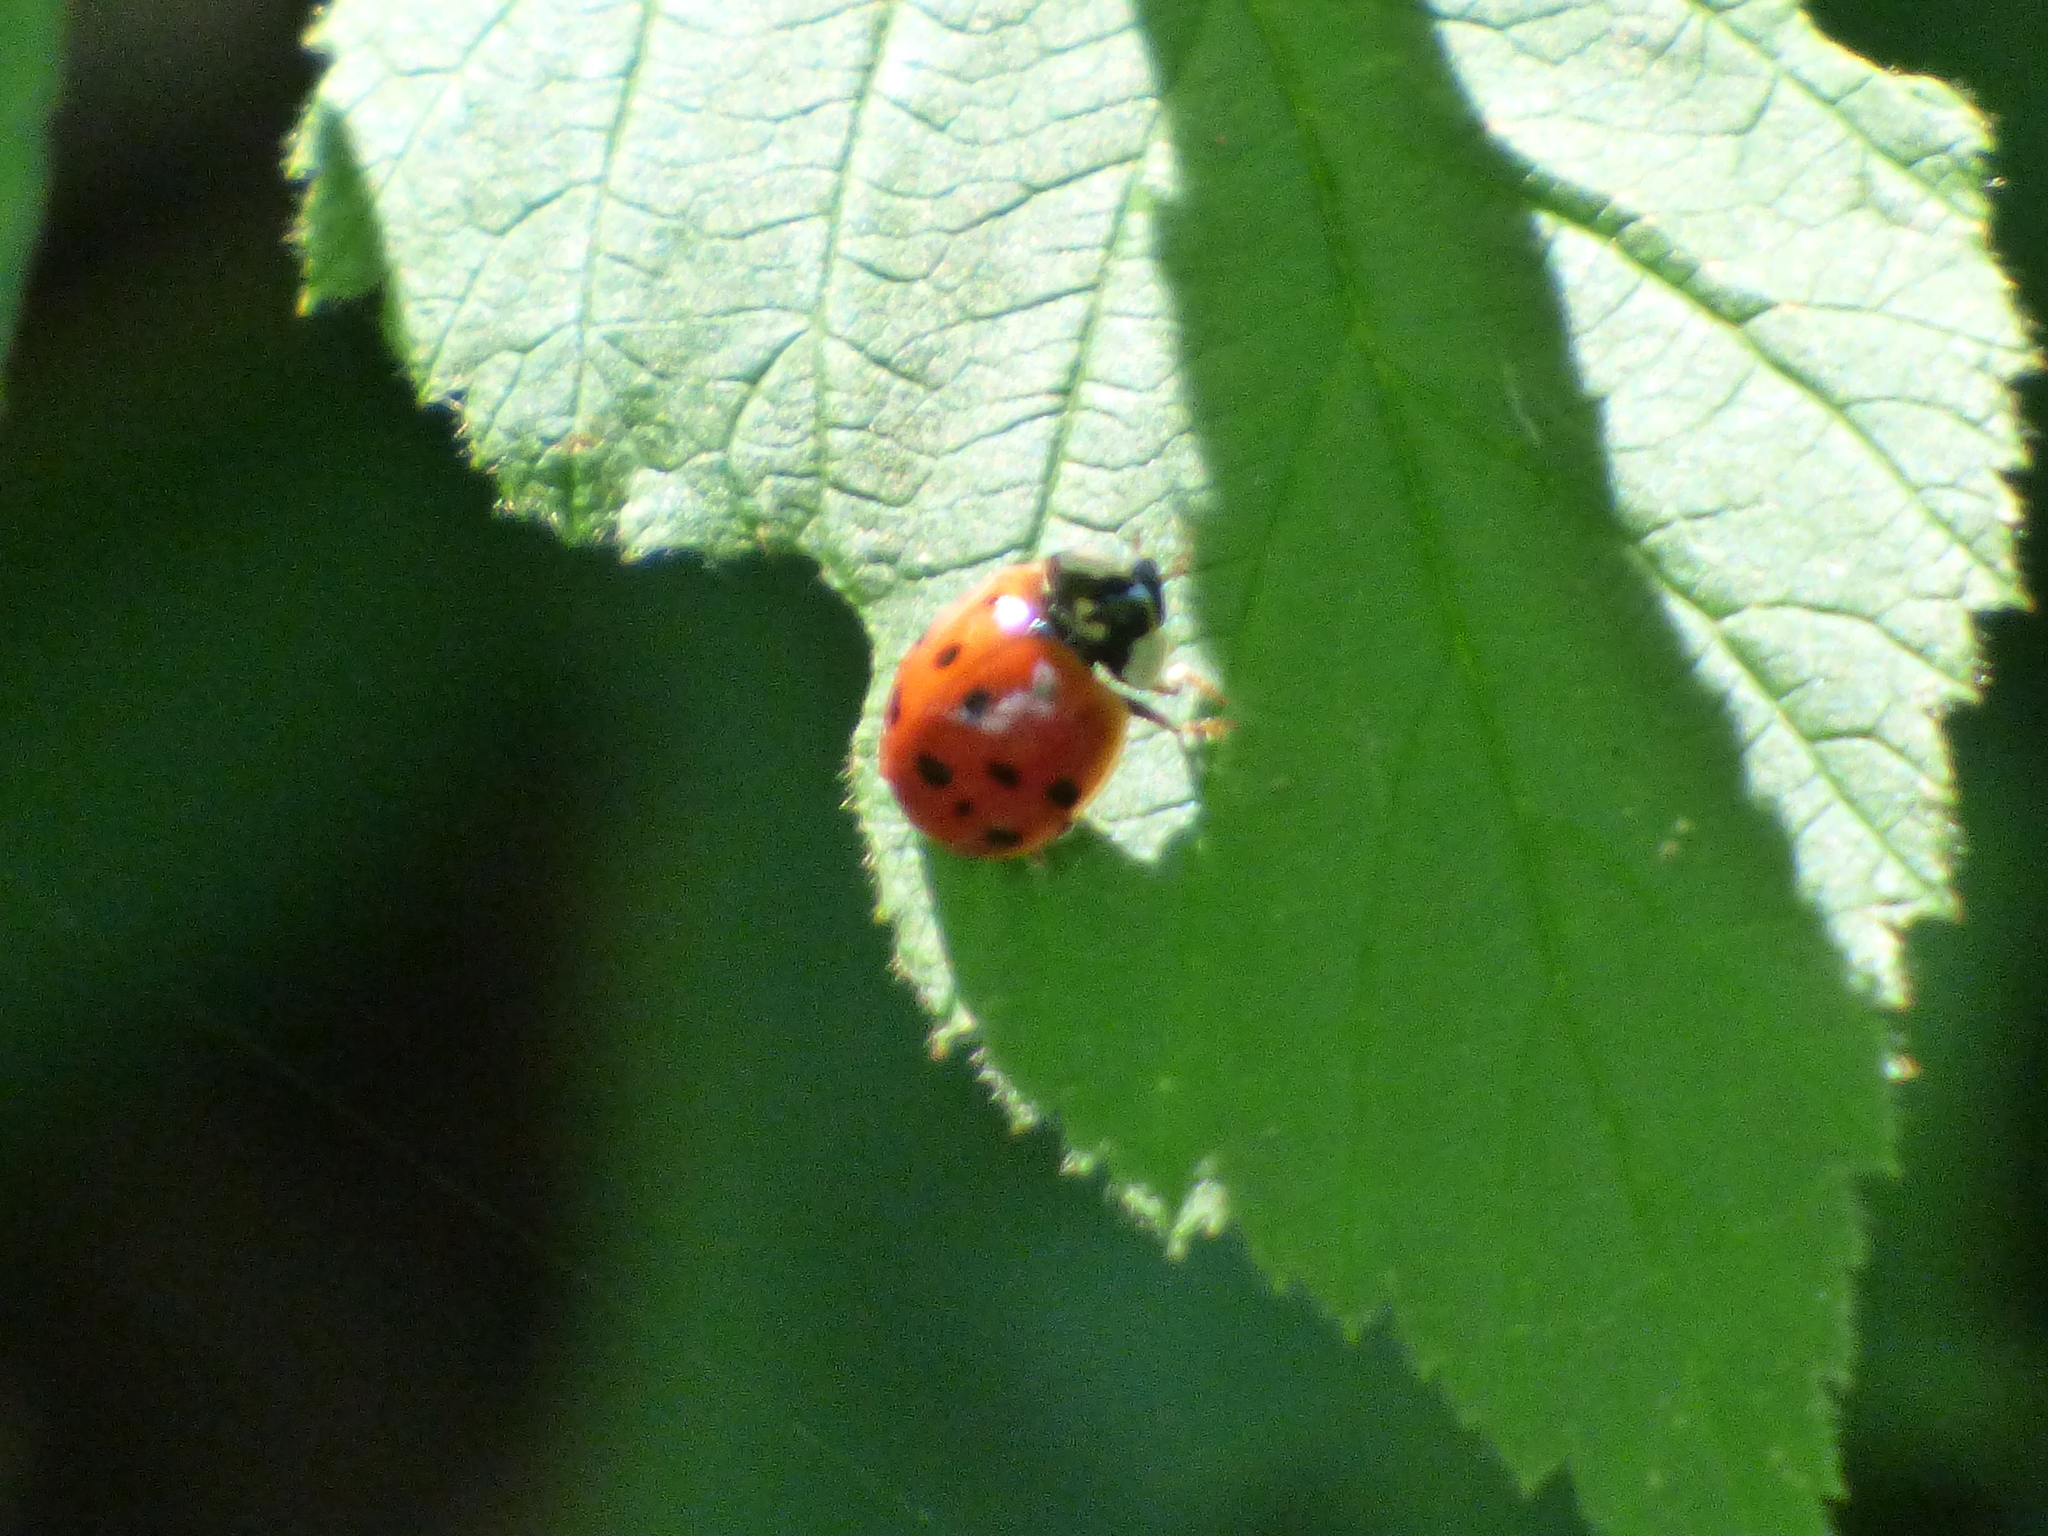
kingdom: Animalia
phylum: Arthropoda
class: Insecta
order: Coleoptera
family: Coccinellidae
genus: Harmonia
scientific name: Harmonia axyridis
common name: Harlequin ladybird
